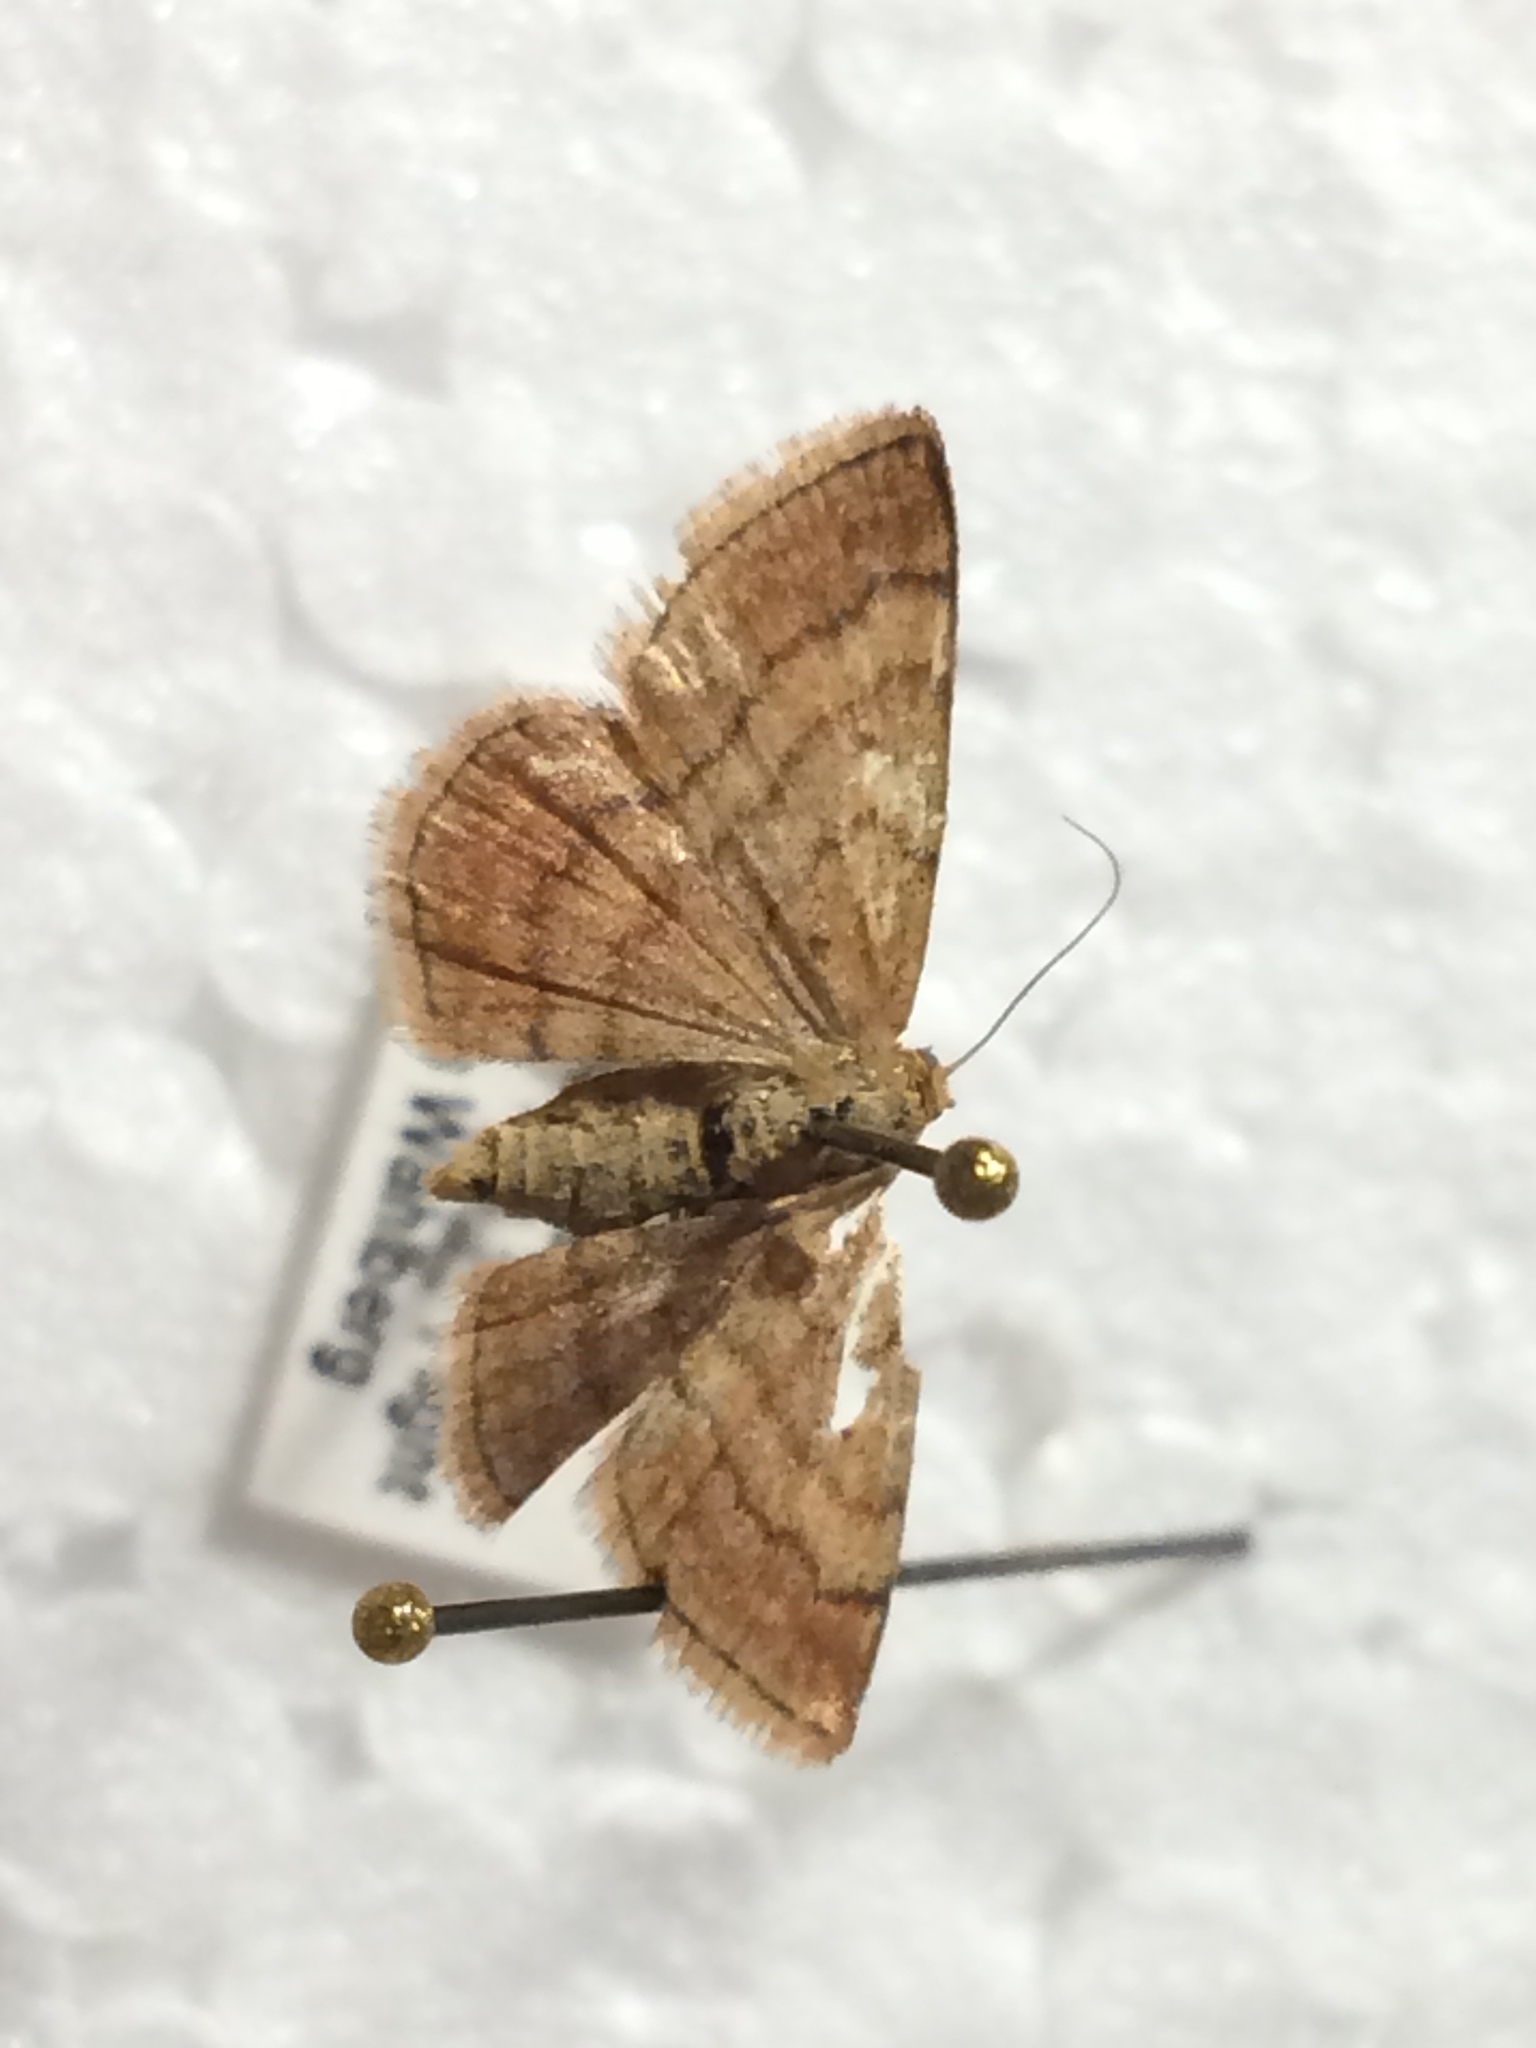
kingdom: Animalia
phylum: Arthropoda
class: Insecta
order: Lepidoptera
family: Geometridae
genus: Scopula
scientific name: Scopula rubiginata
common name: Tawny wave
